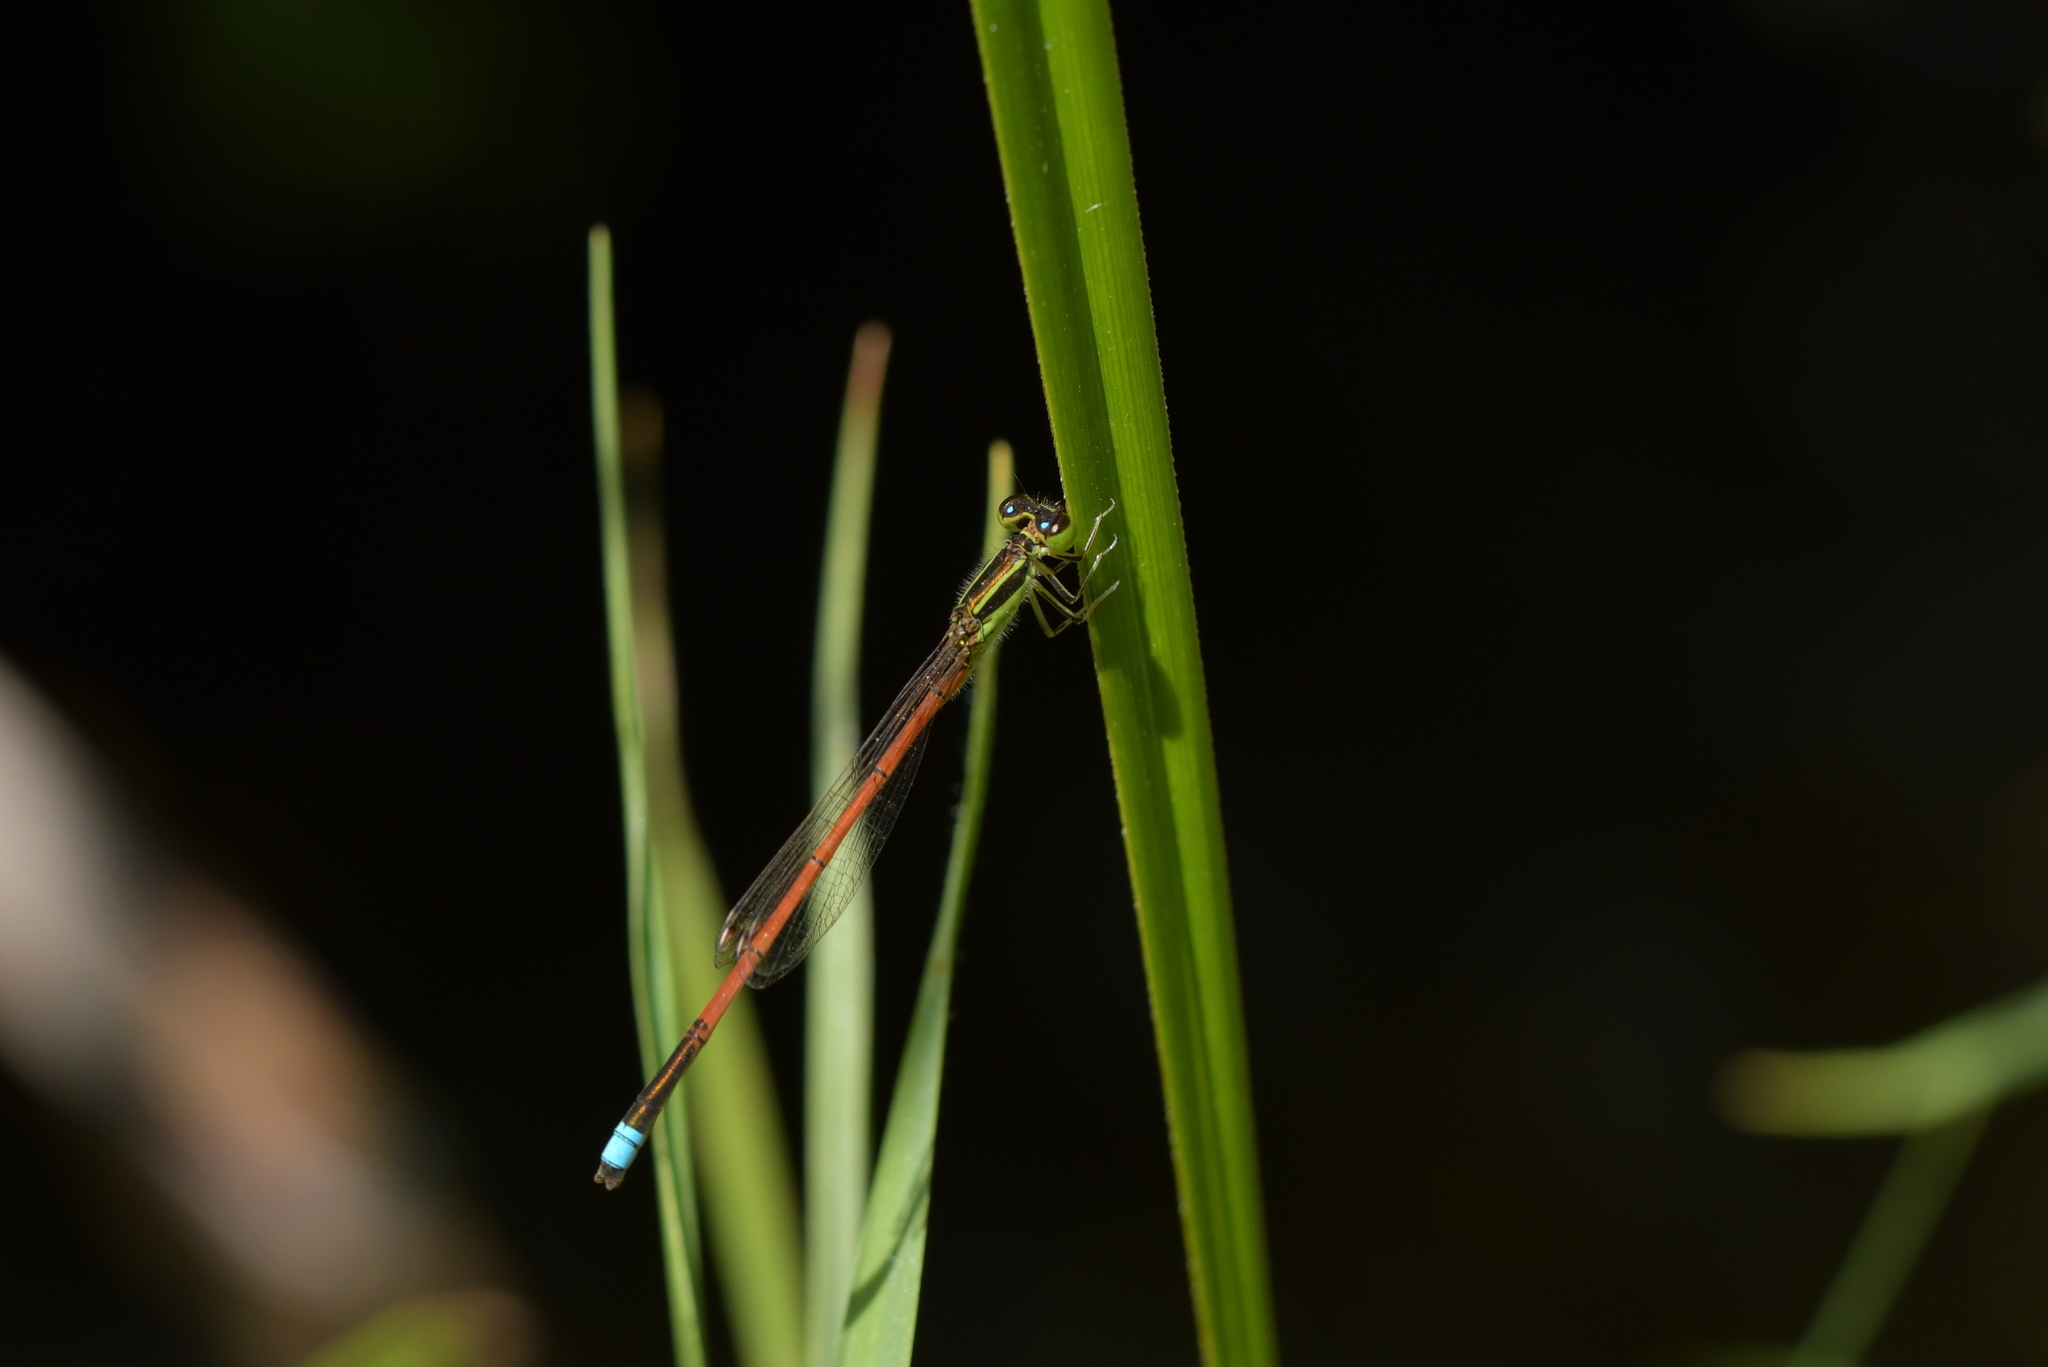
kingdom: Animalia
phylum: Arthropoda
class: Insecta
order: Odonata
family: Coenagrionidae
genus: Ischnura
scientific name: Ischnura aurora
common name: Gossamer damselfly
